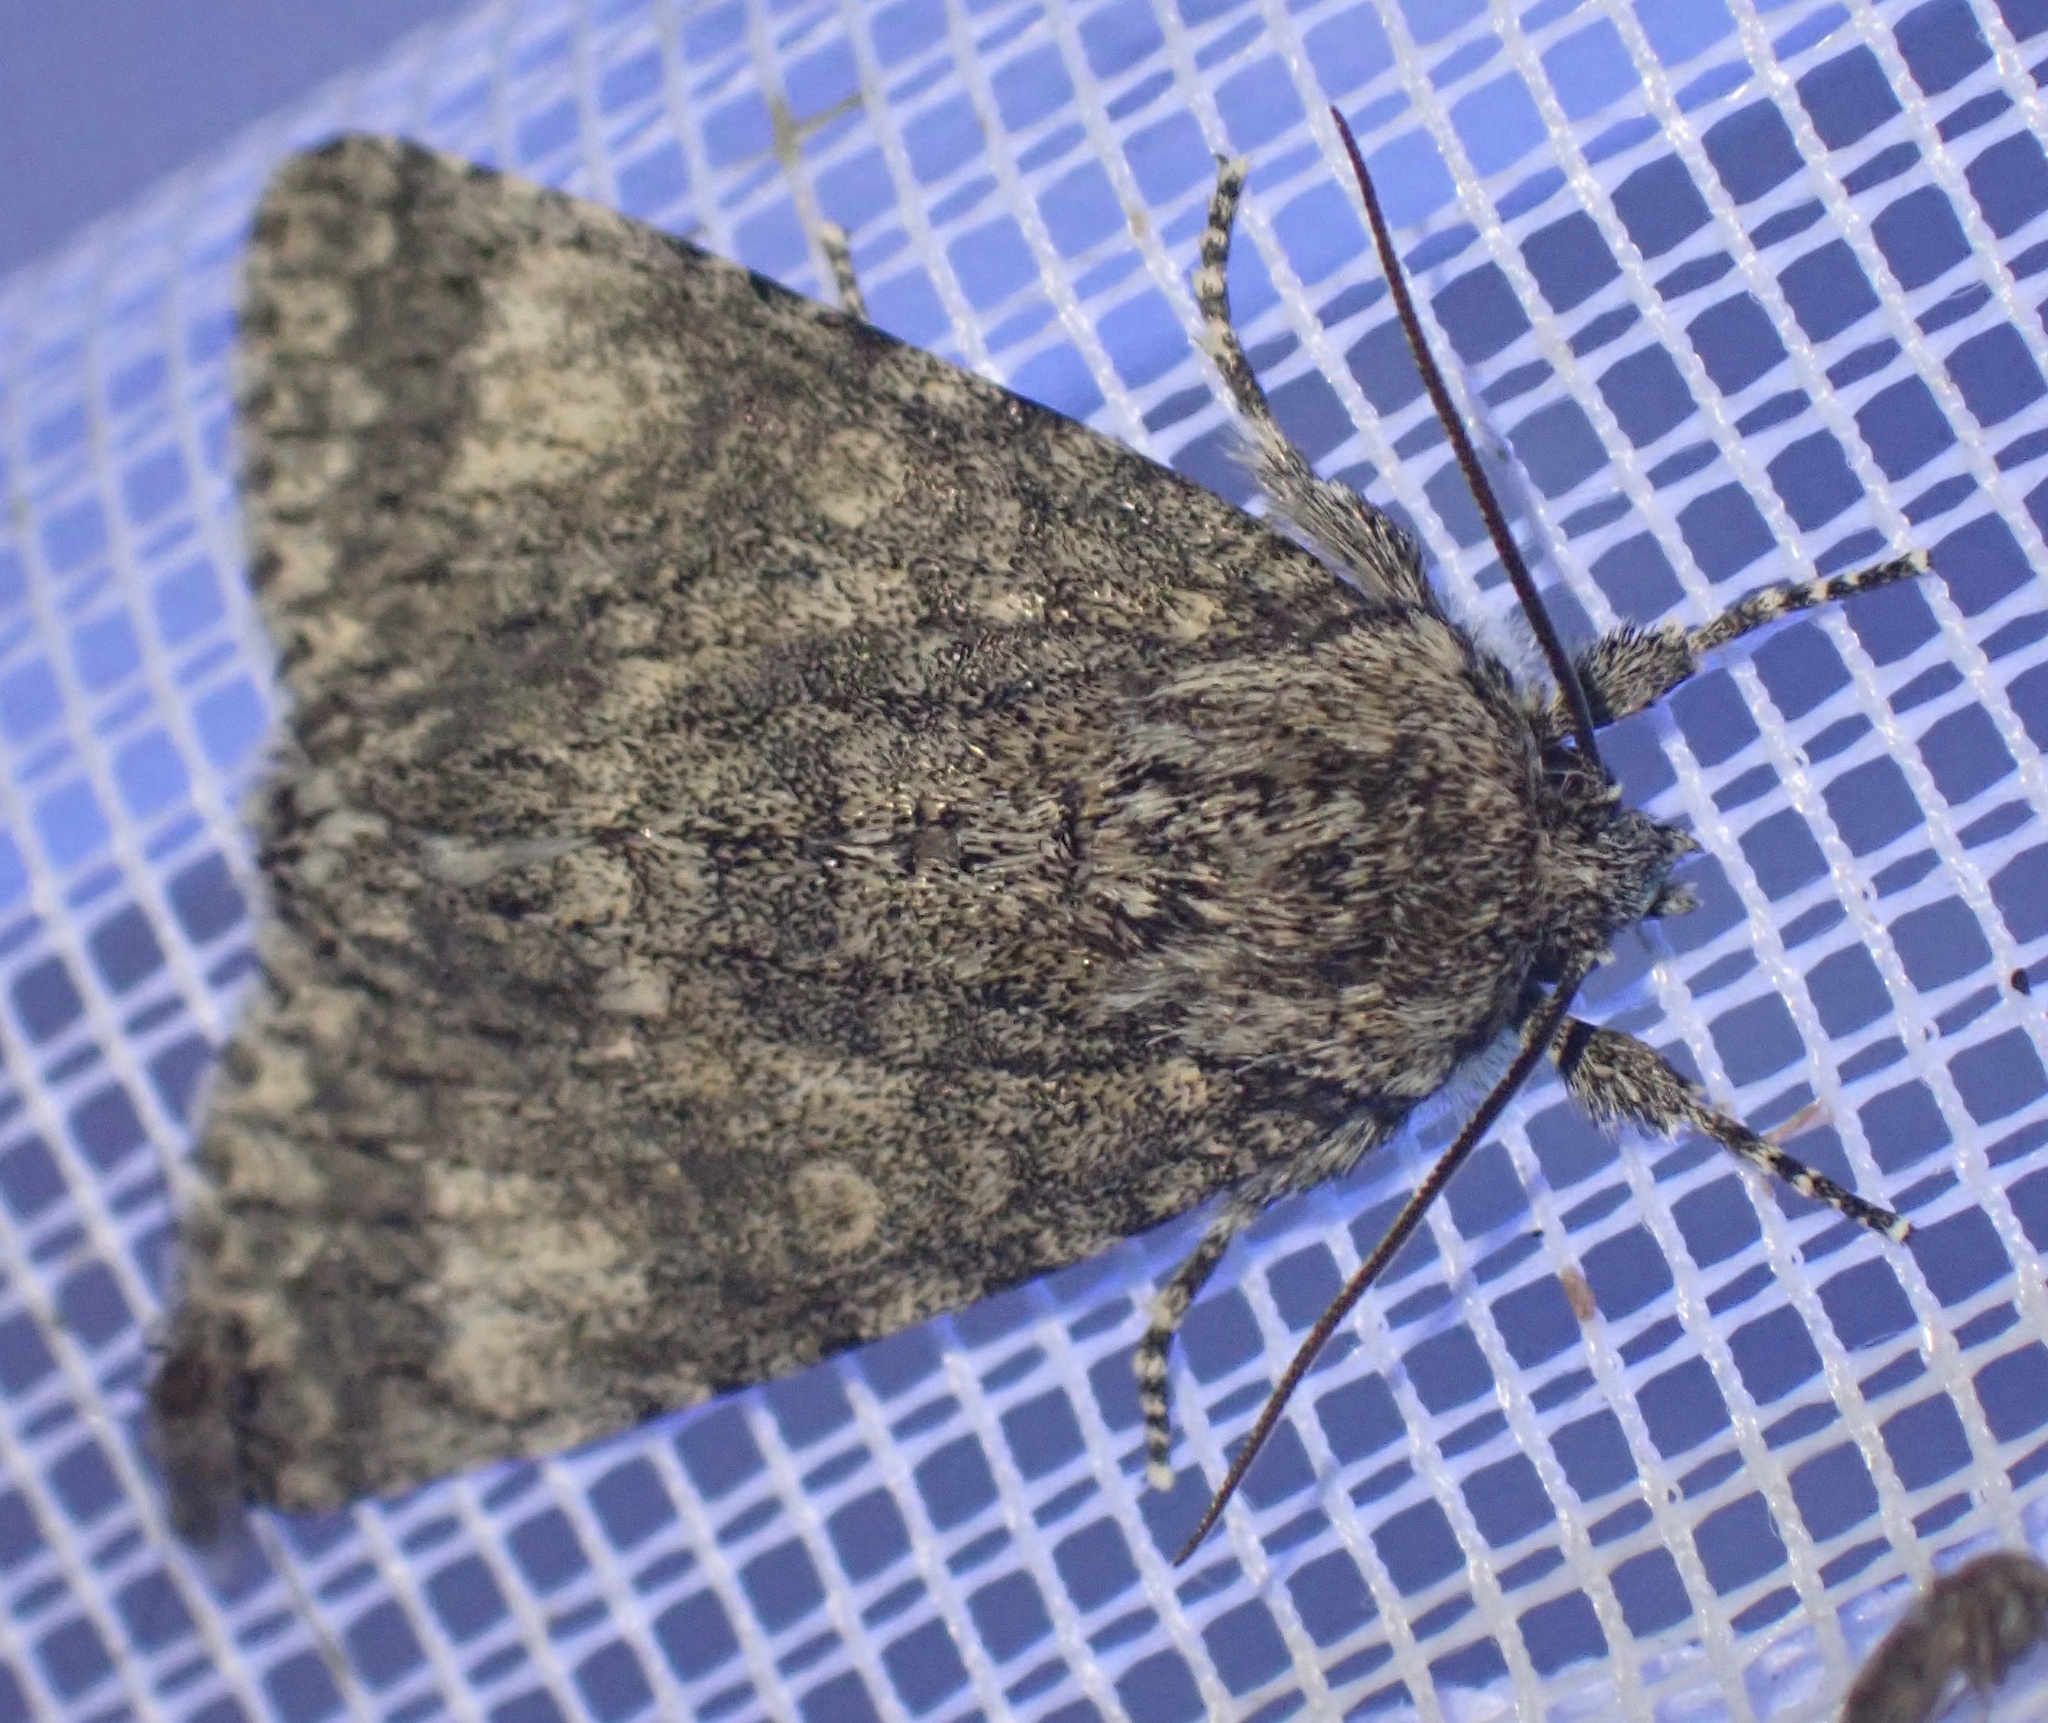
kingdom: Animalia
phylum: Arthropoda
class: Insecta
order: Lepidoptera
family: Noctuidae
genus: Acronicta
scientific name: Acronicta megacephala
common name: Poplar grey
